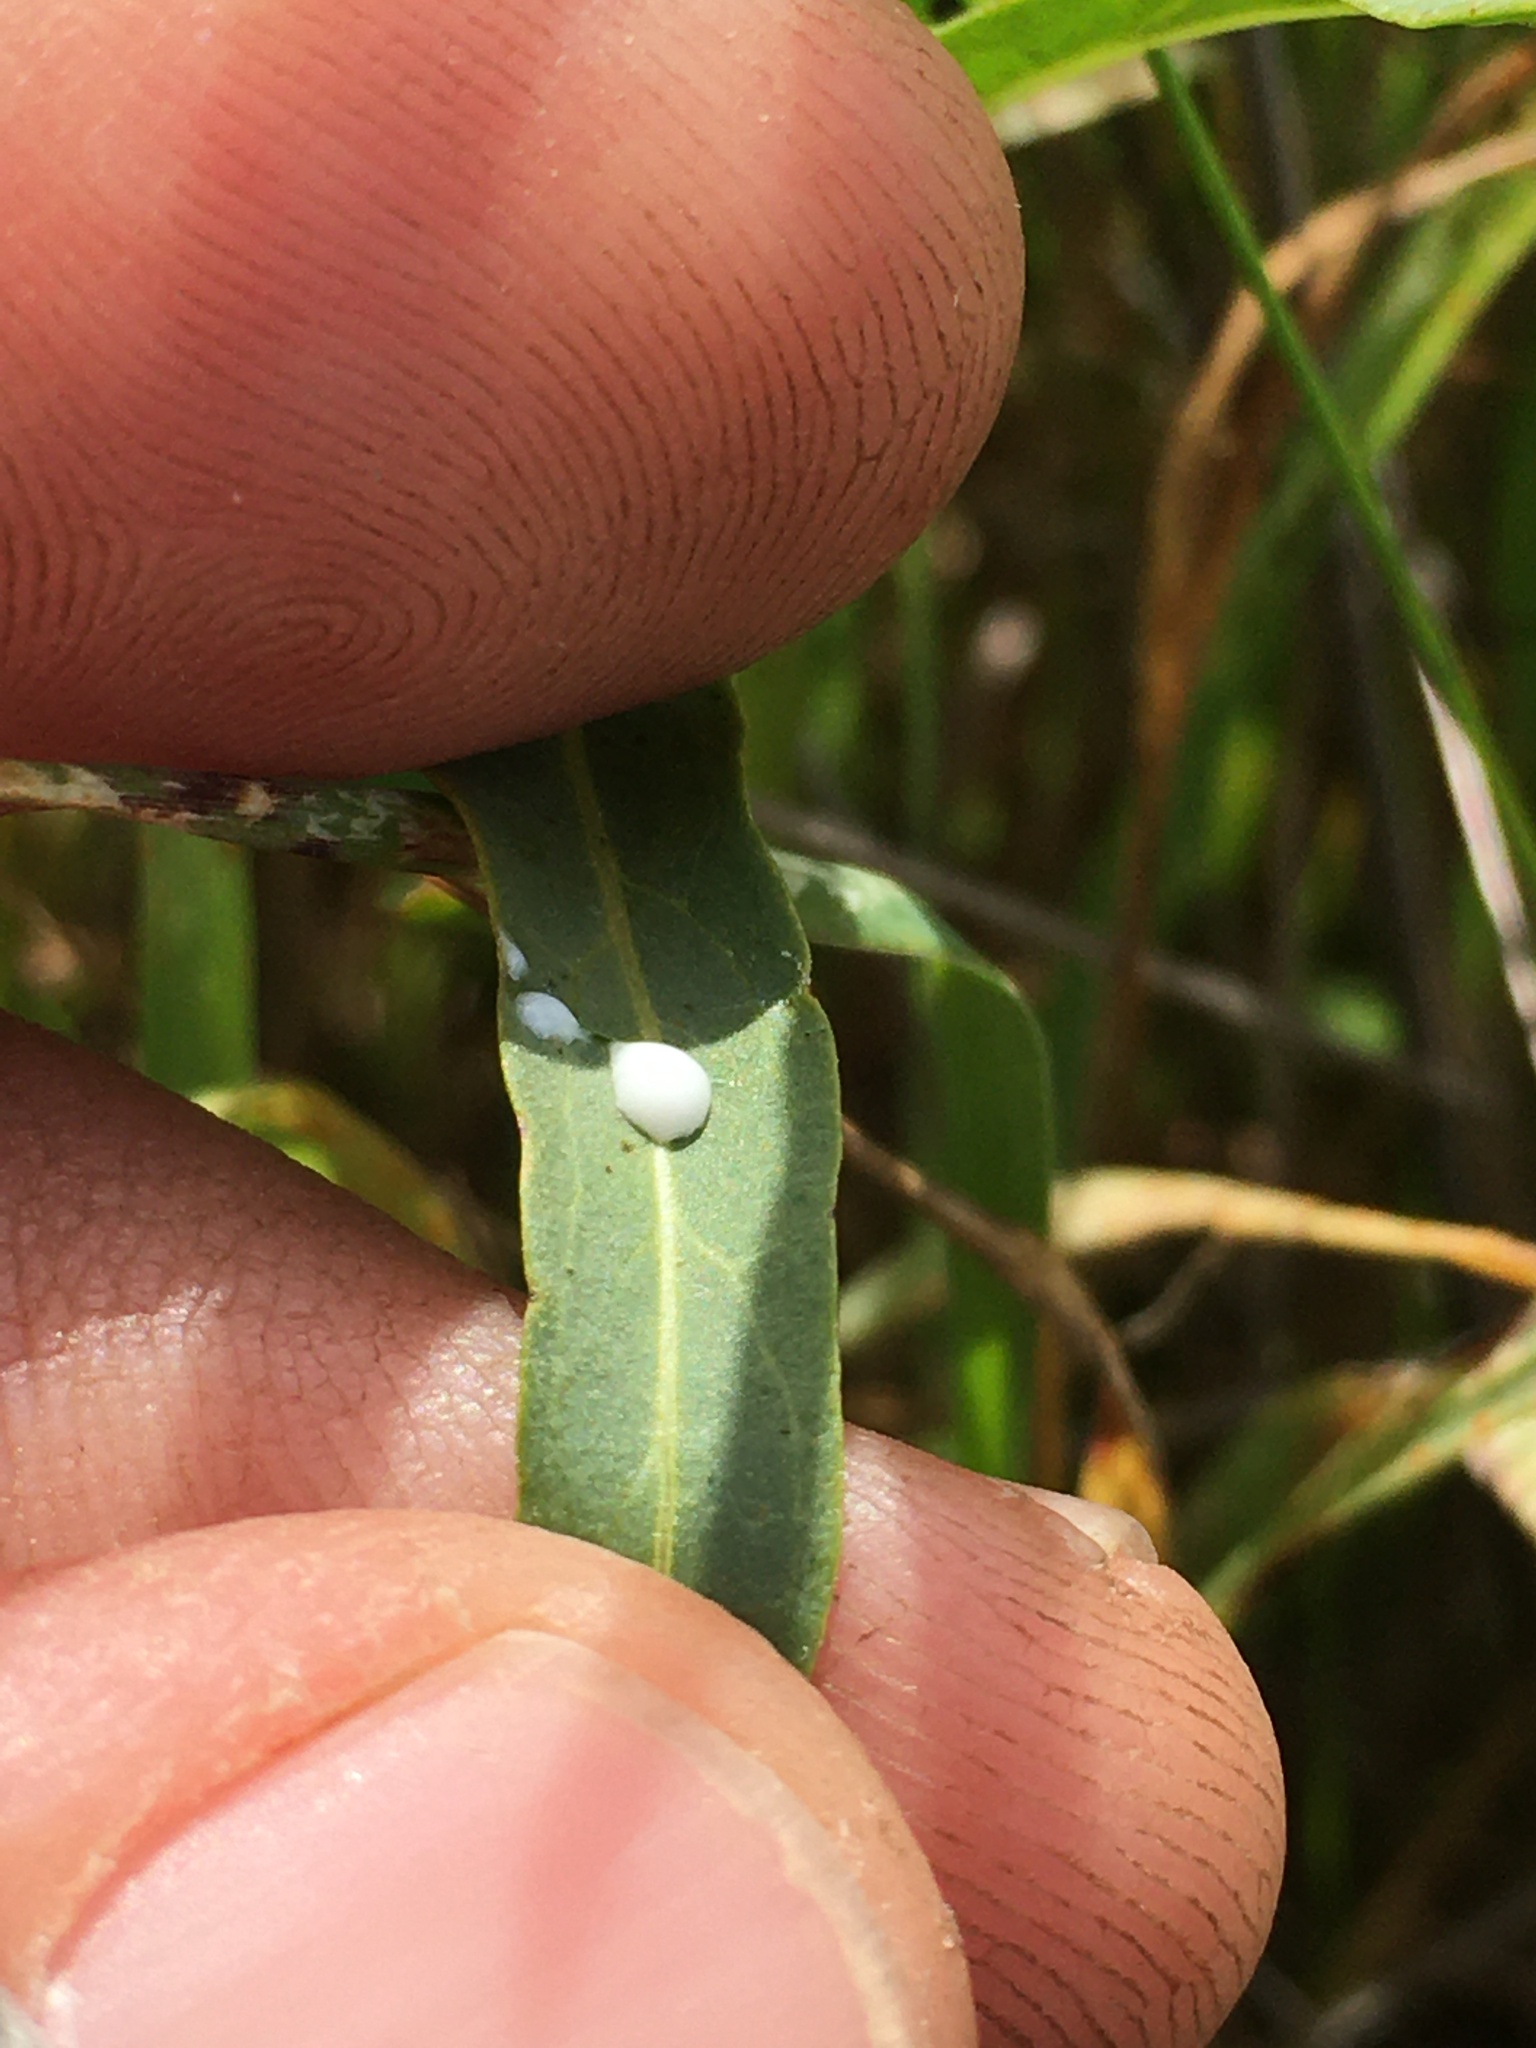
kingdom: Plantae
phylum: Tracheophyta
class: Magnoliopsida
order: Gentianales
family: Apocynaceae
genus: Asclepias
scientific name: Asclepias fascicularis
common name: Mexican milkweed
